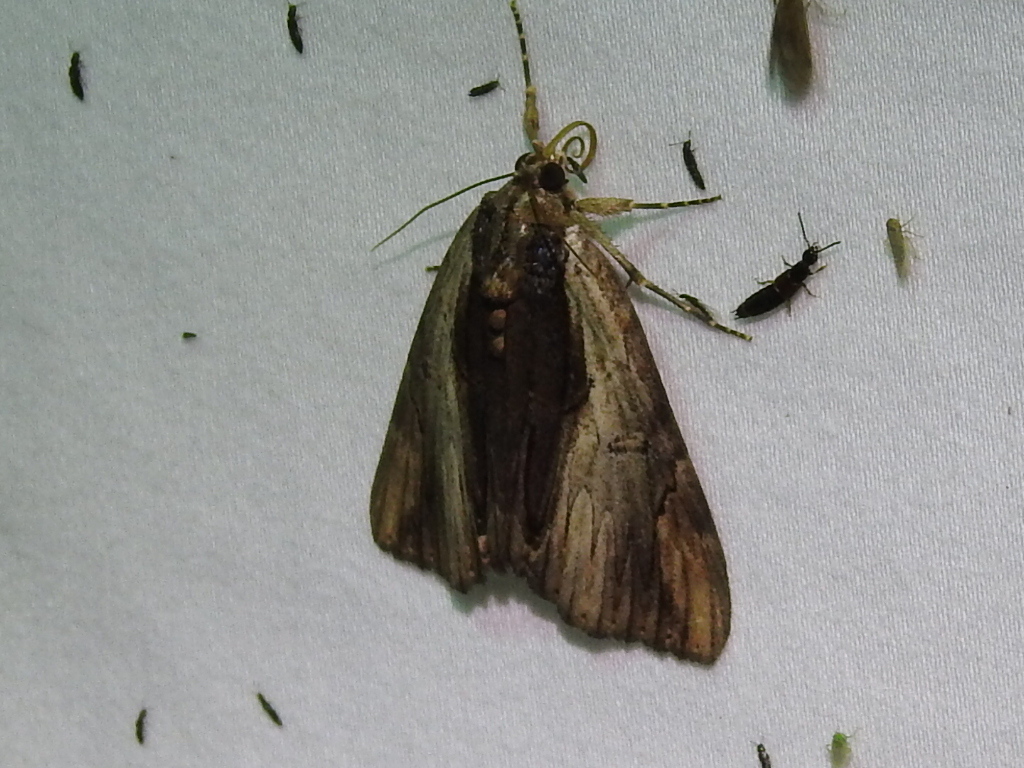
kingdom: Animalia
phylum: Arthropoda
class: Insecta
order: Lepidoptera
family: Erebidae
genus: Catocala
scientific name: Catocala ultronia
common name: Ultronia underwing
